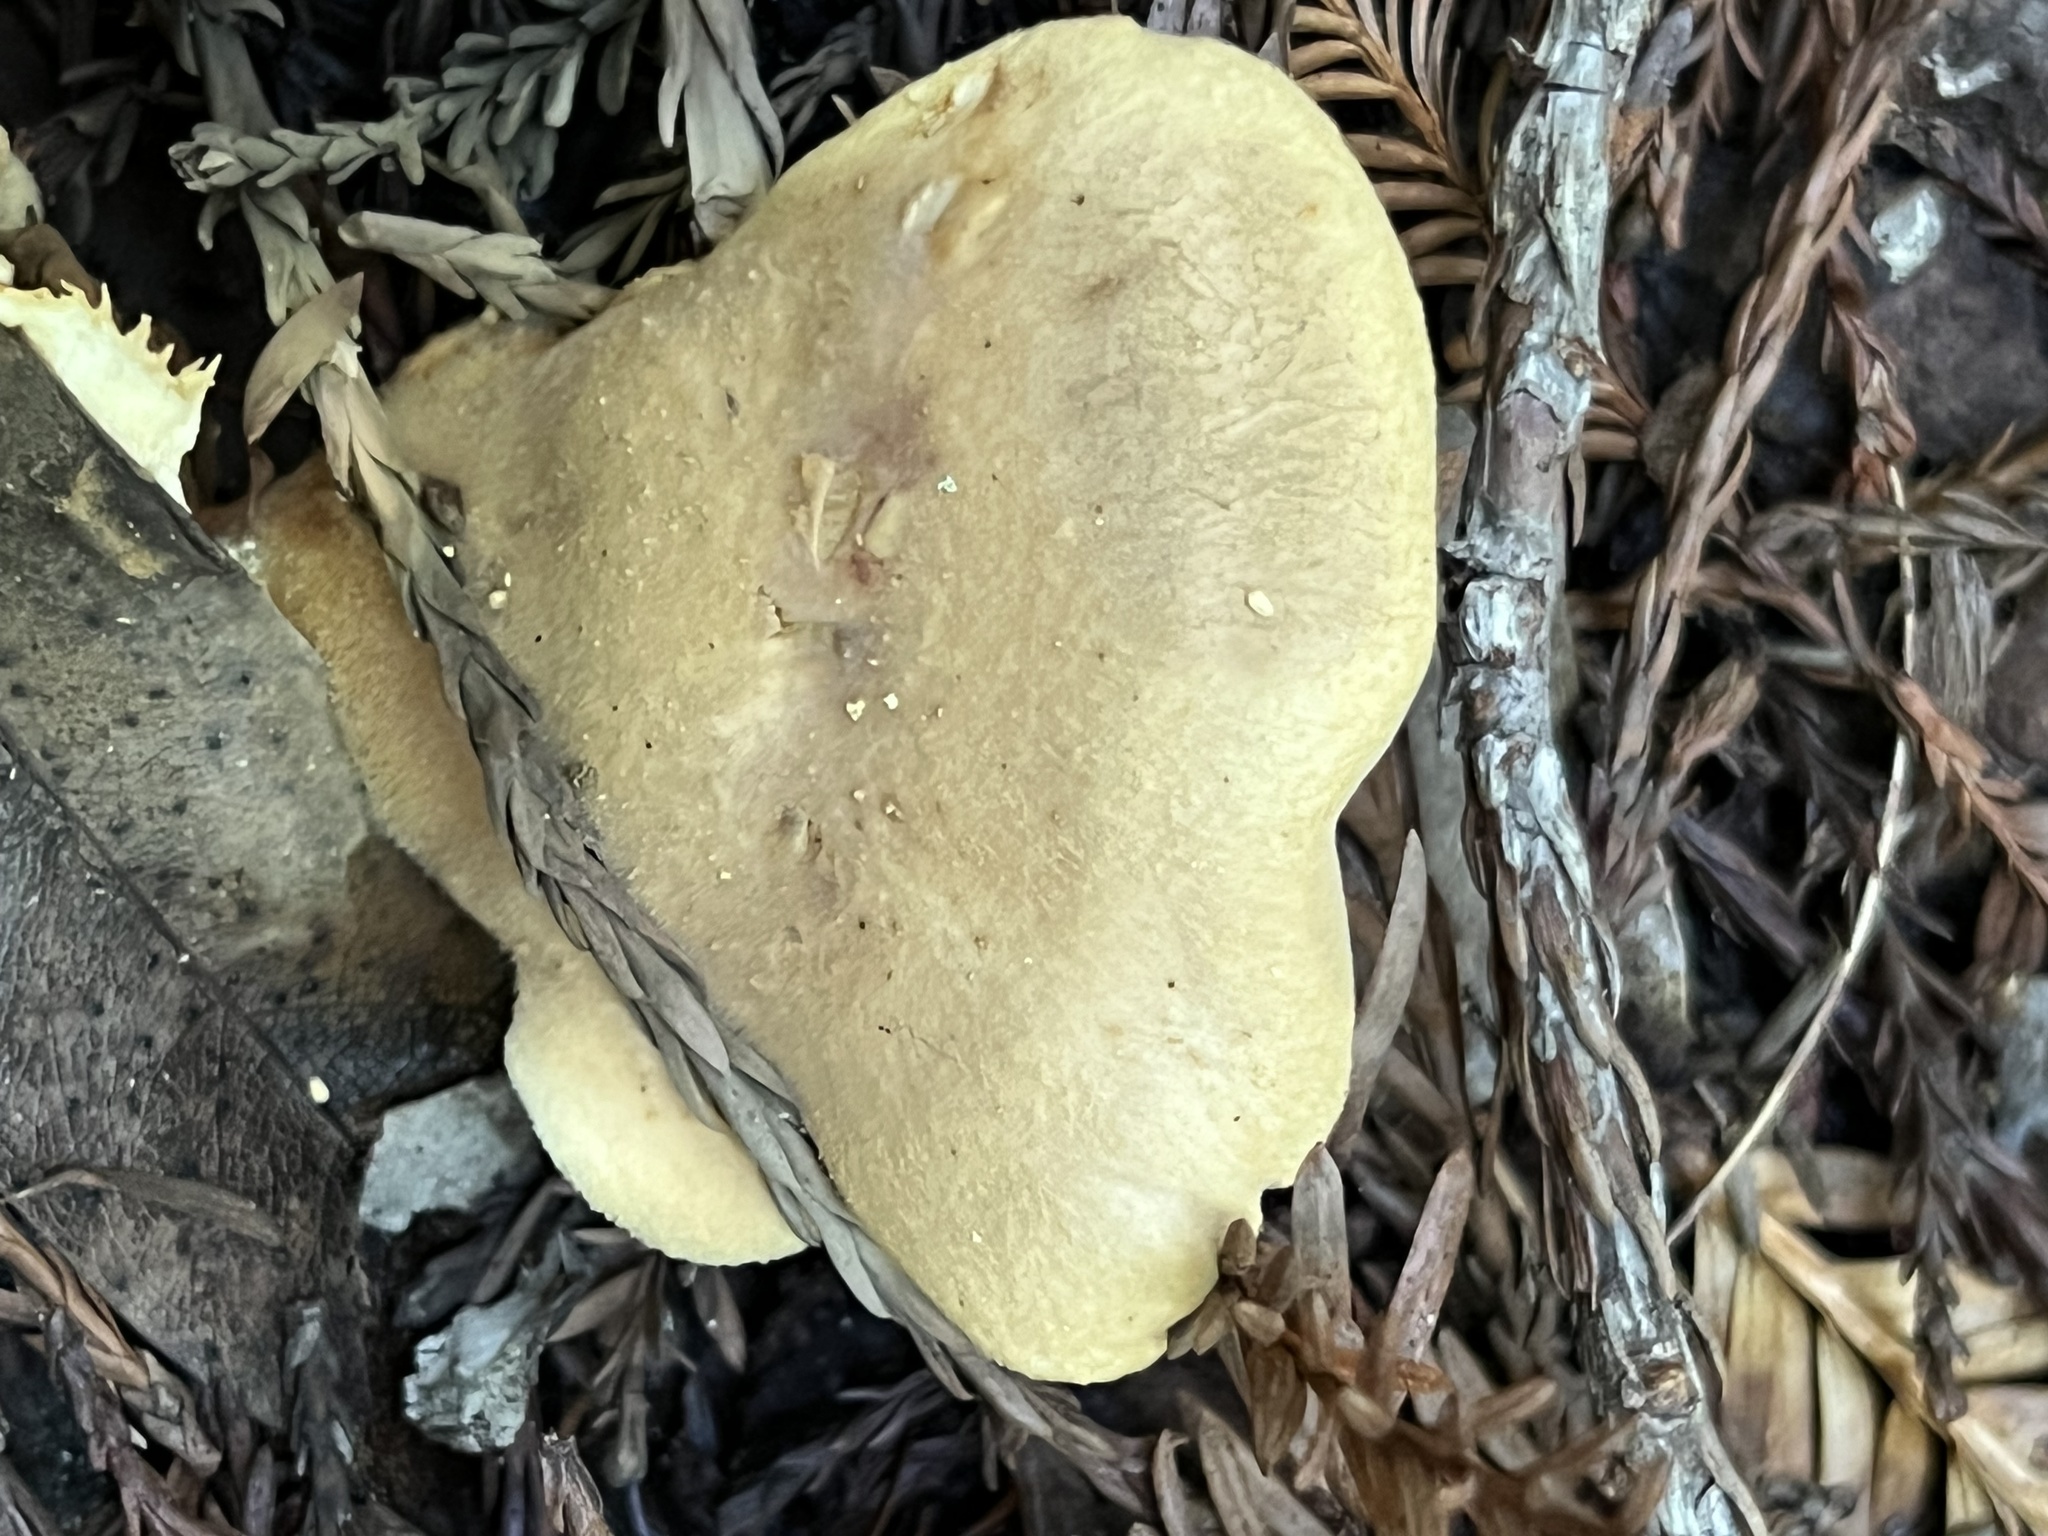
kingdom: Fungi
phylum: Basidiomycota
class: Agaricomycetes
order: Boletales
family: Tapinellaceae
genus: Tapinella
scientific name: Tapinella panuoides
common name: Oyster rollrim
